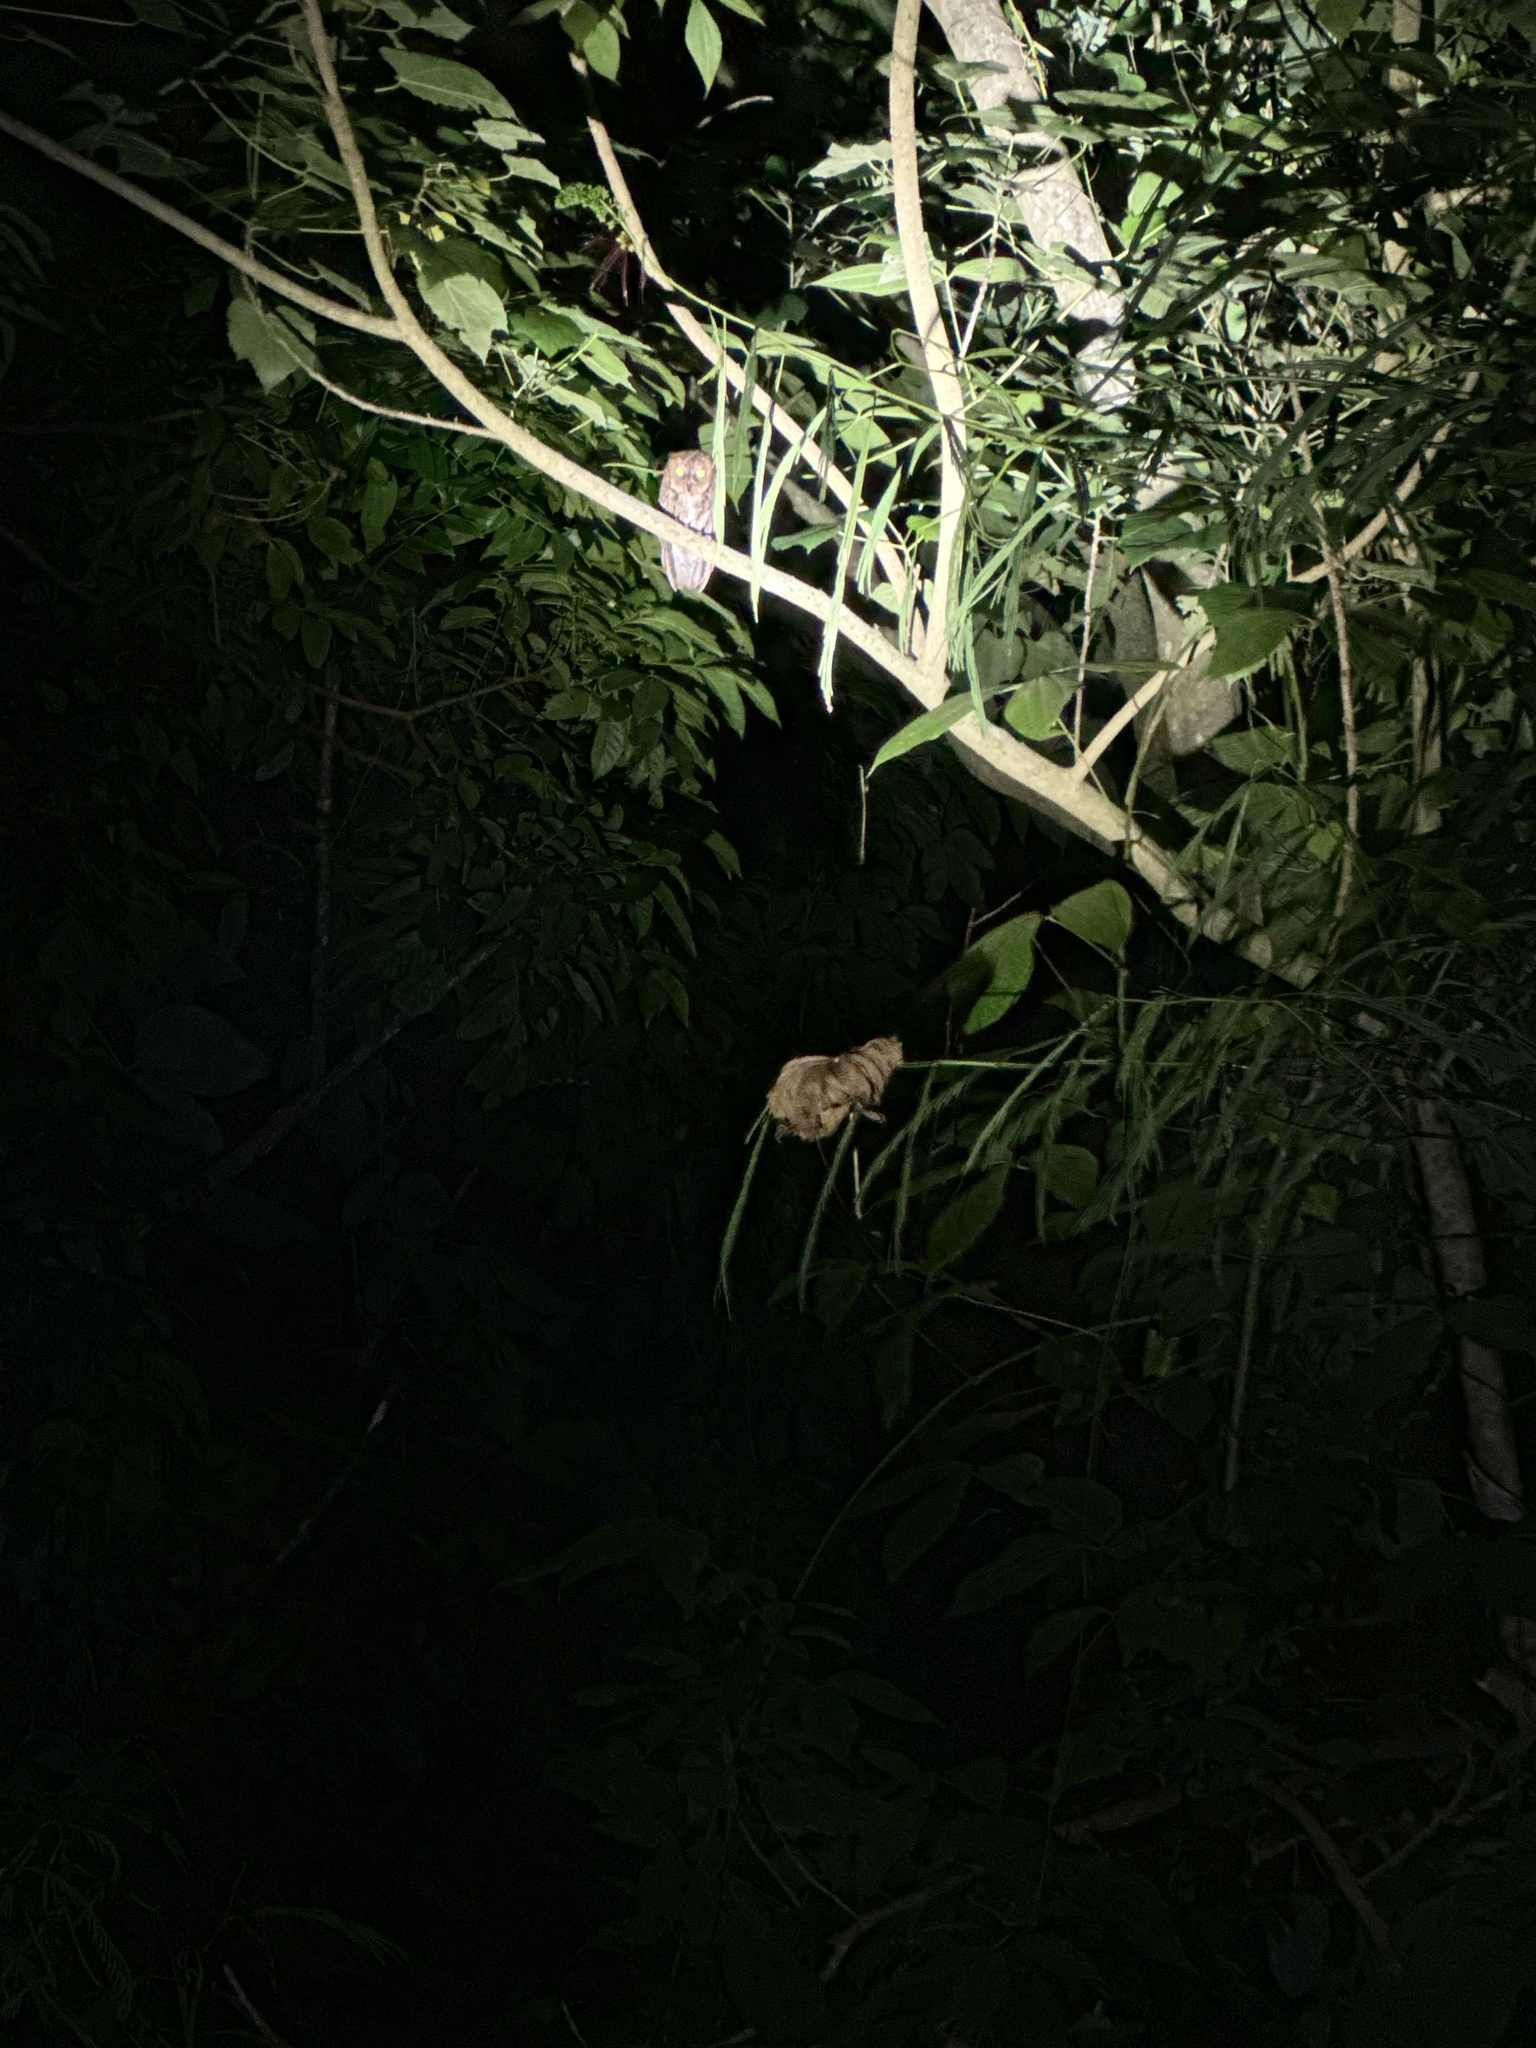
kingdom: Animalia
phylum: Chordata
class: Aves
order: Strigiformes
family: Strigidae
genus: Otus
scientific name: Otus manadensis
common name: Sulawesi scops owl
